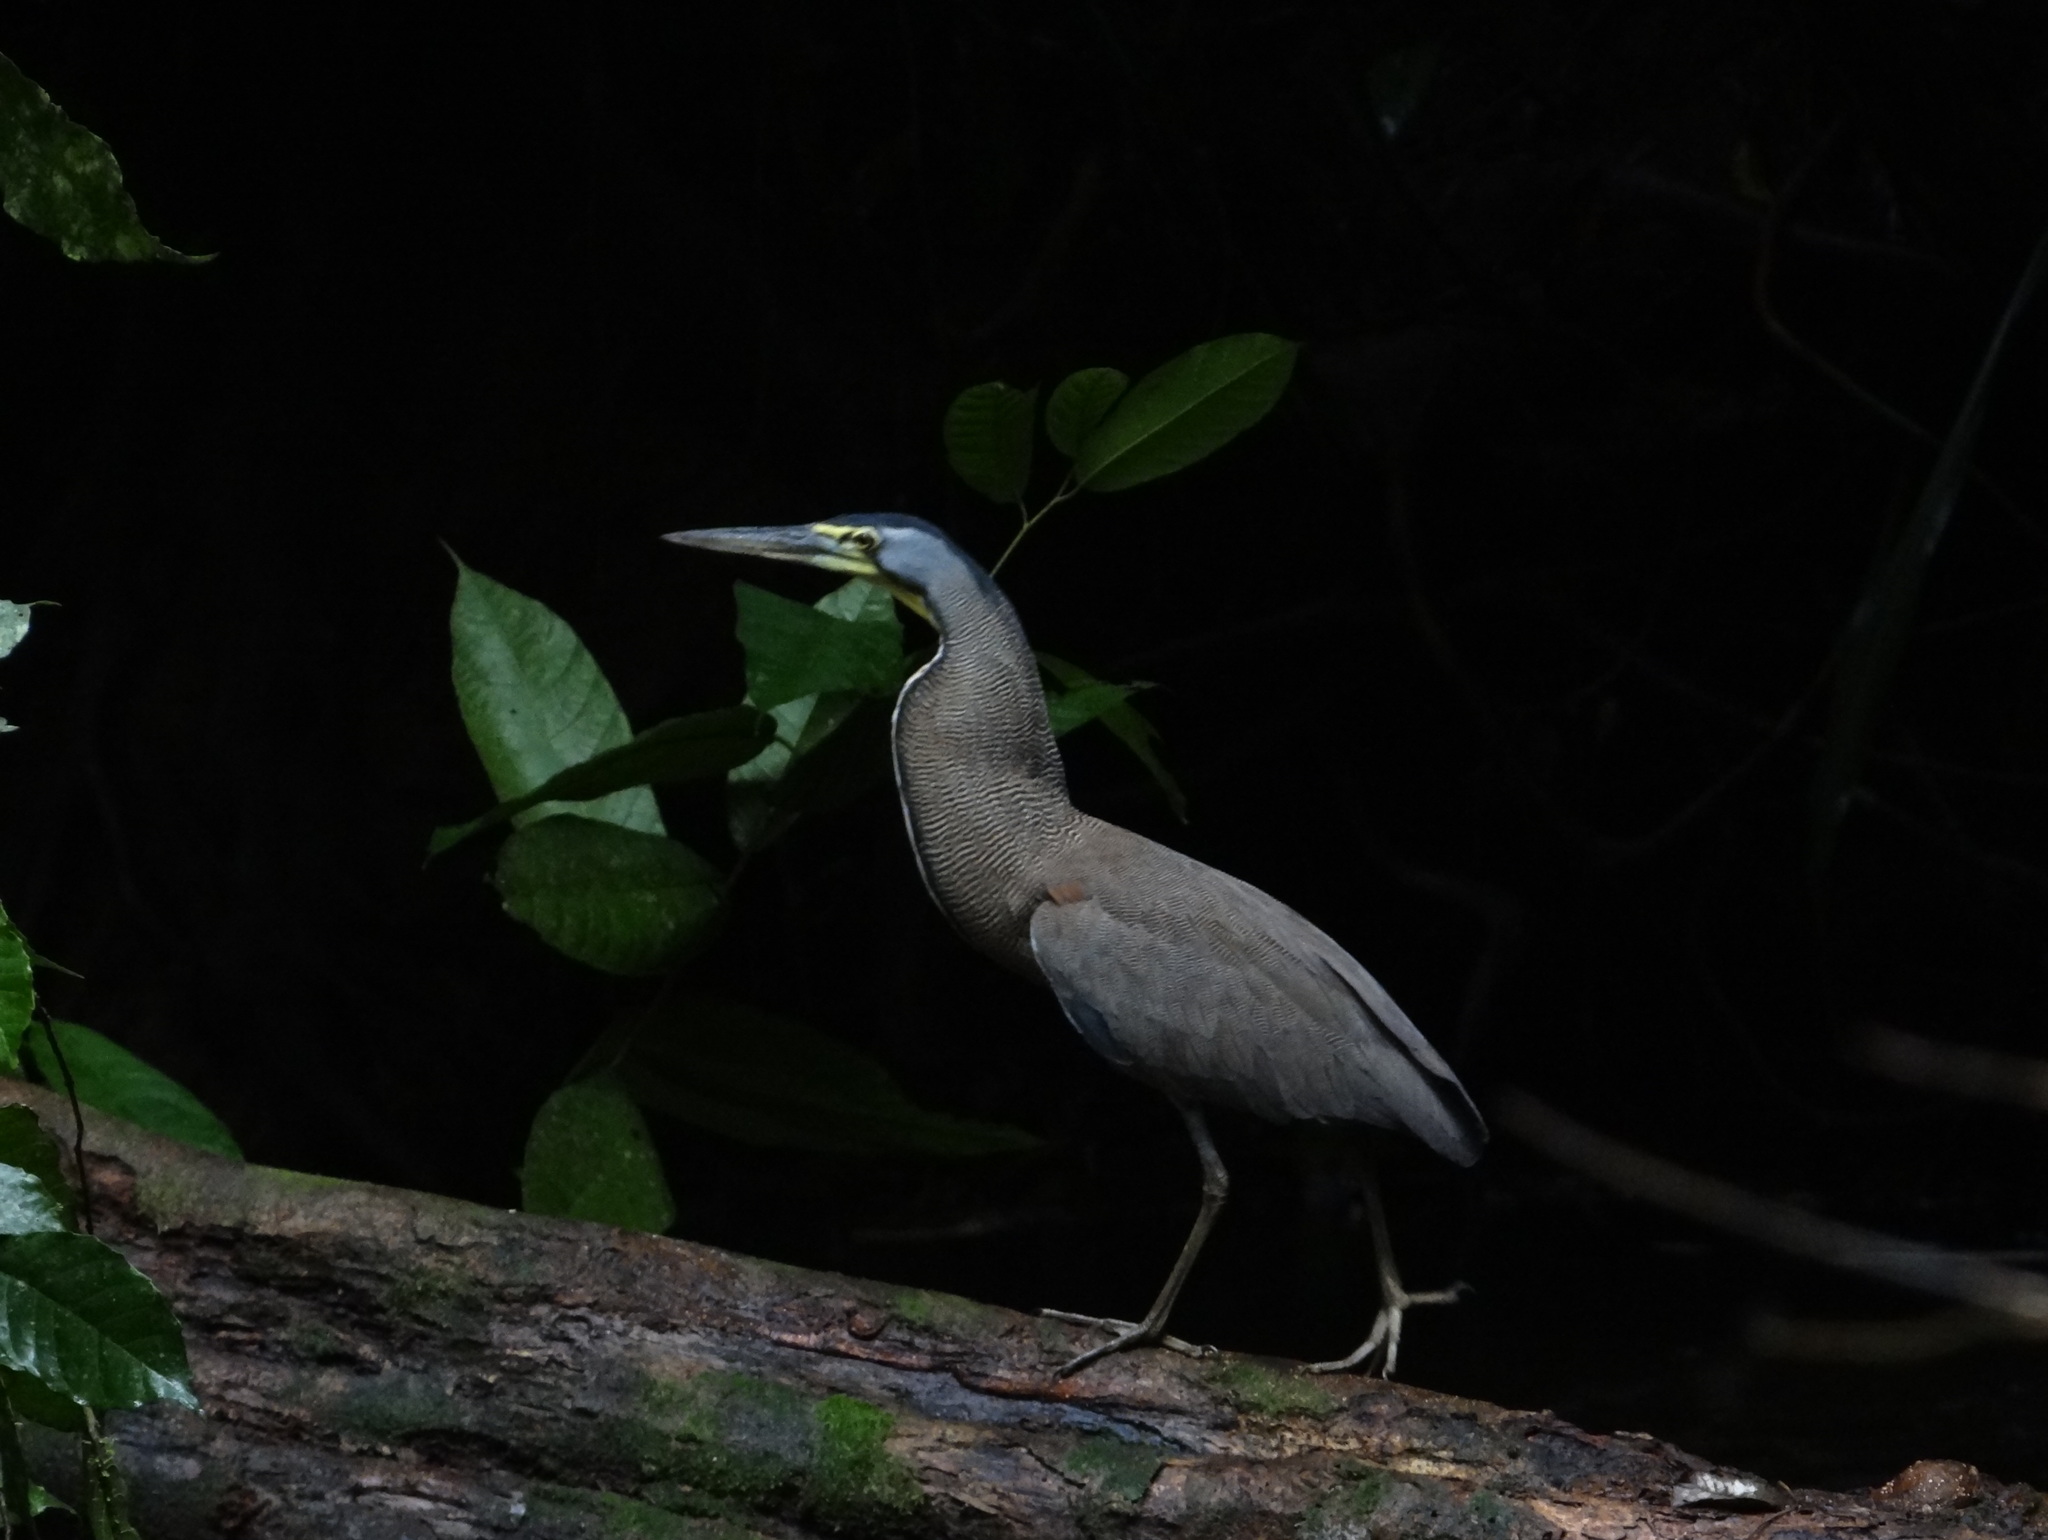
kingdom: Animalia
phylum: Chordata
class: Aves
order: Pelecaniformes
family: Ardeidae
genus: Tigrisoma
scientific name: Tigrisoma mexicanum
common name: Bare-throated tiger-heron
